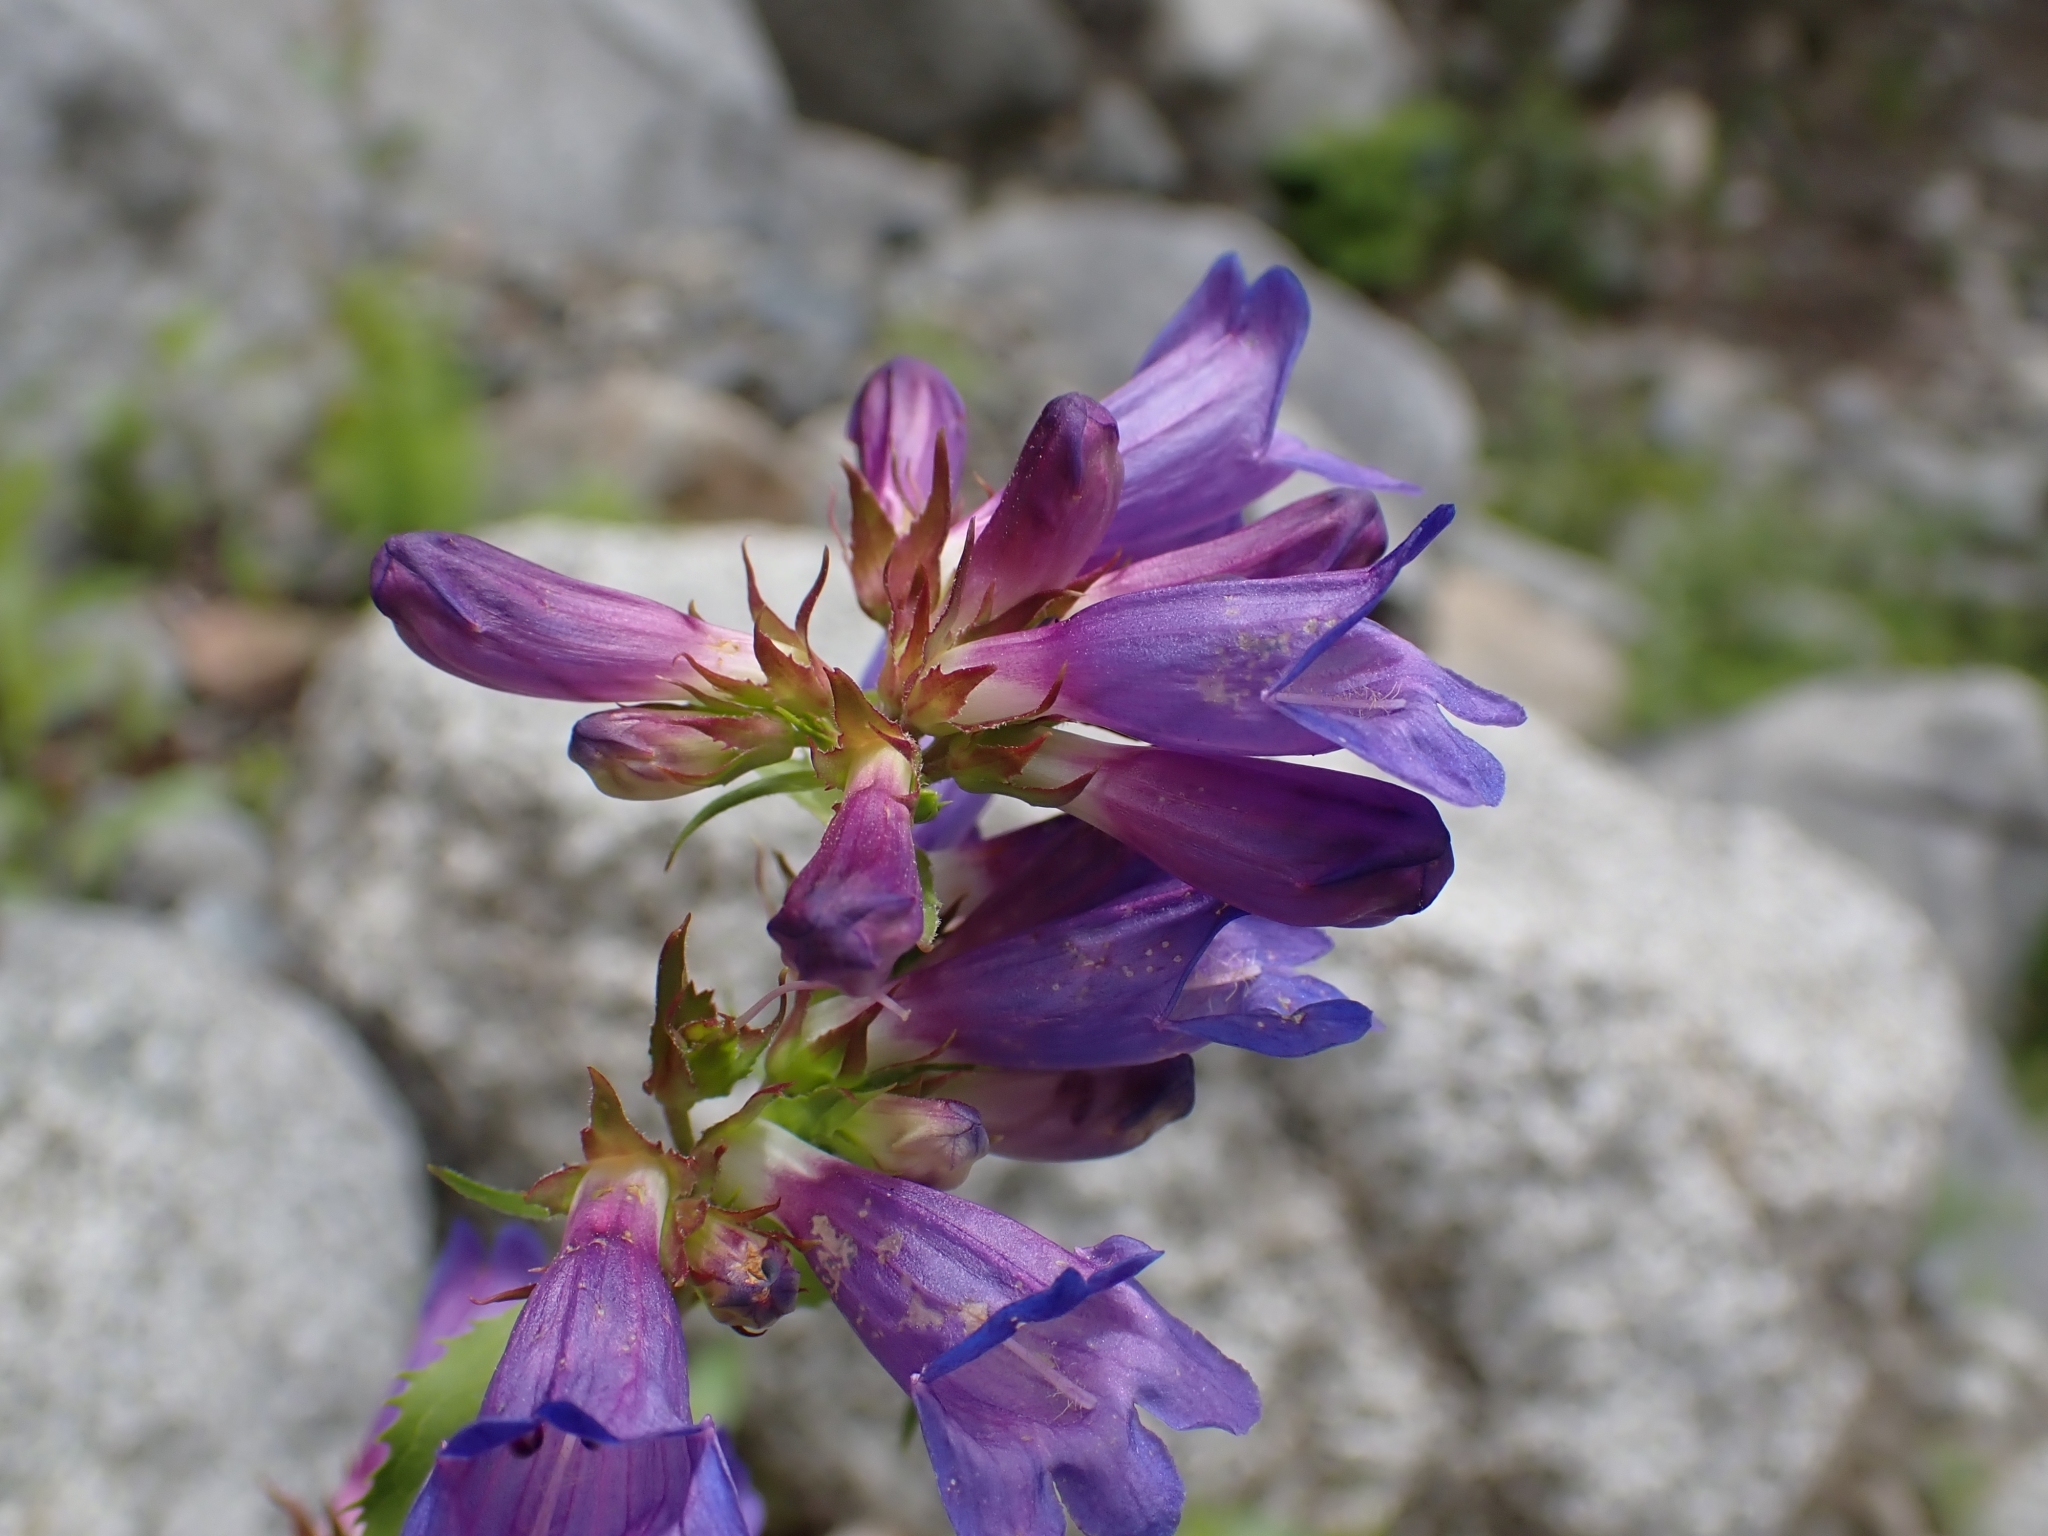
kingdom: Plantae
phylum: Tracheophyta
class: Magnoliopsida
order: Lamiales
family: Plantaginaceae
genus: Penstemon
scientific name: Penstemon serrulatus
